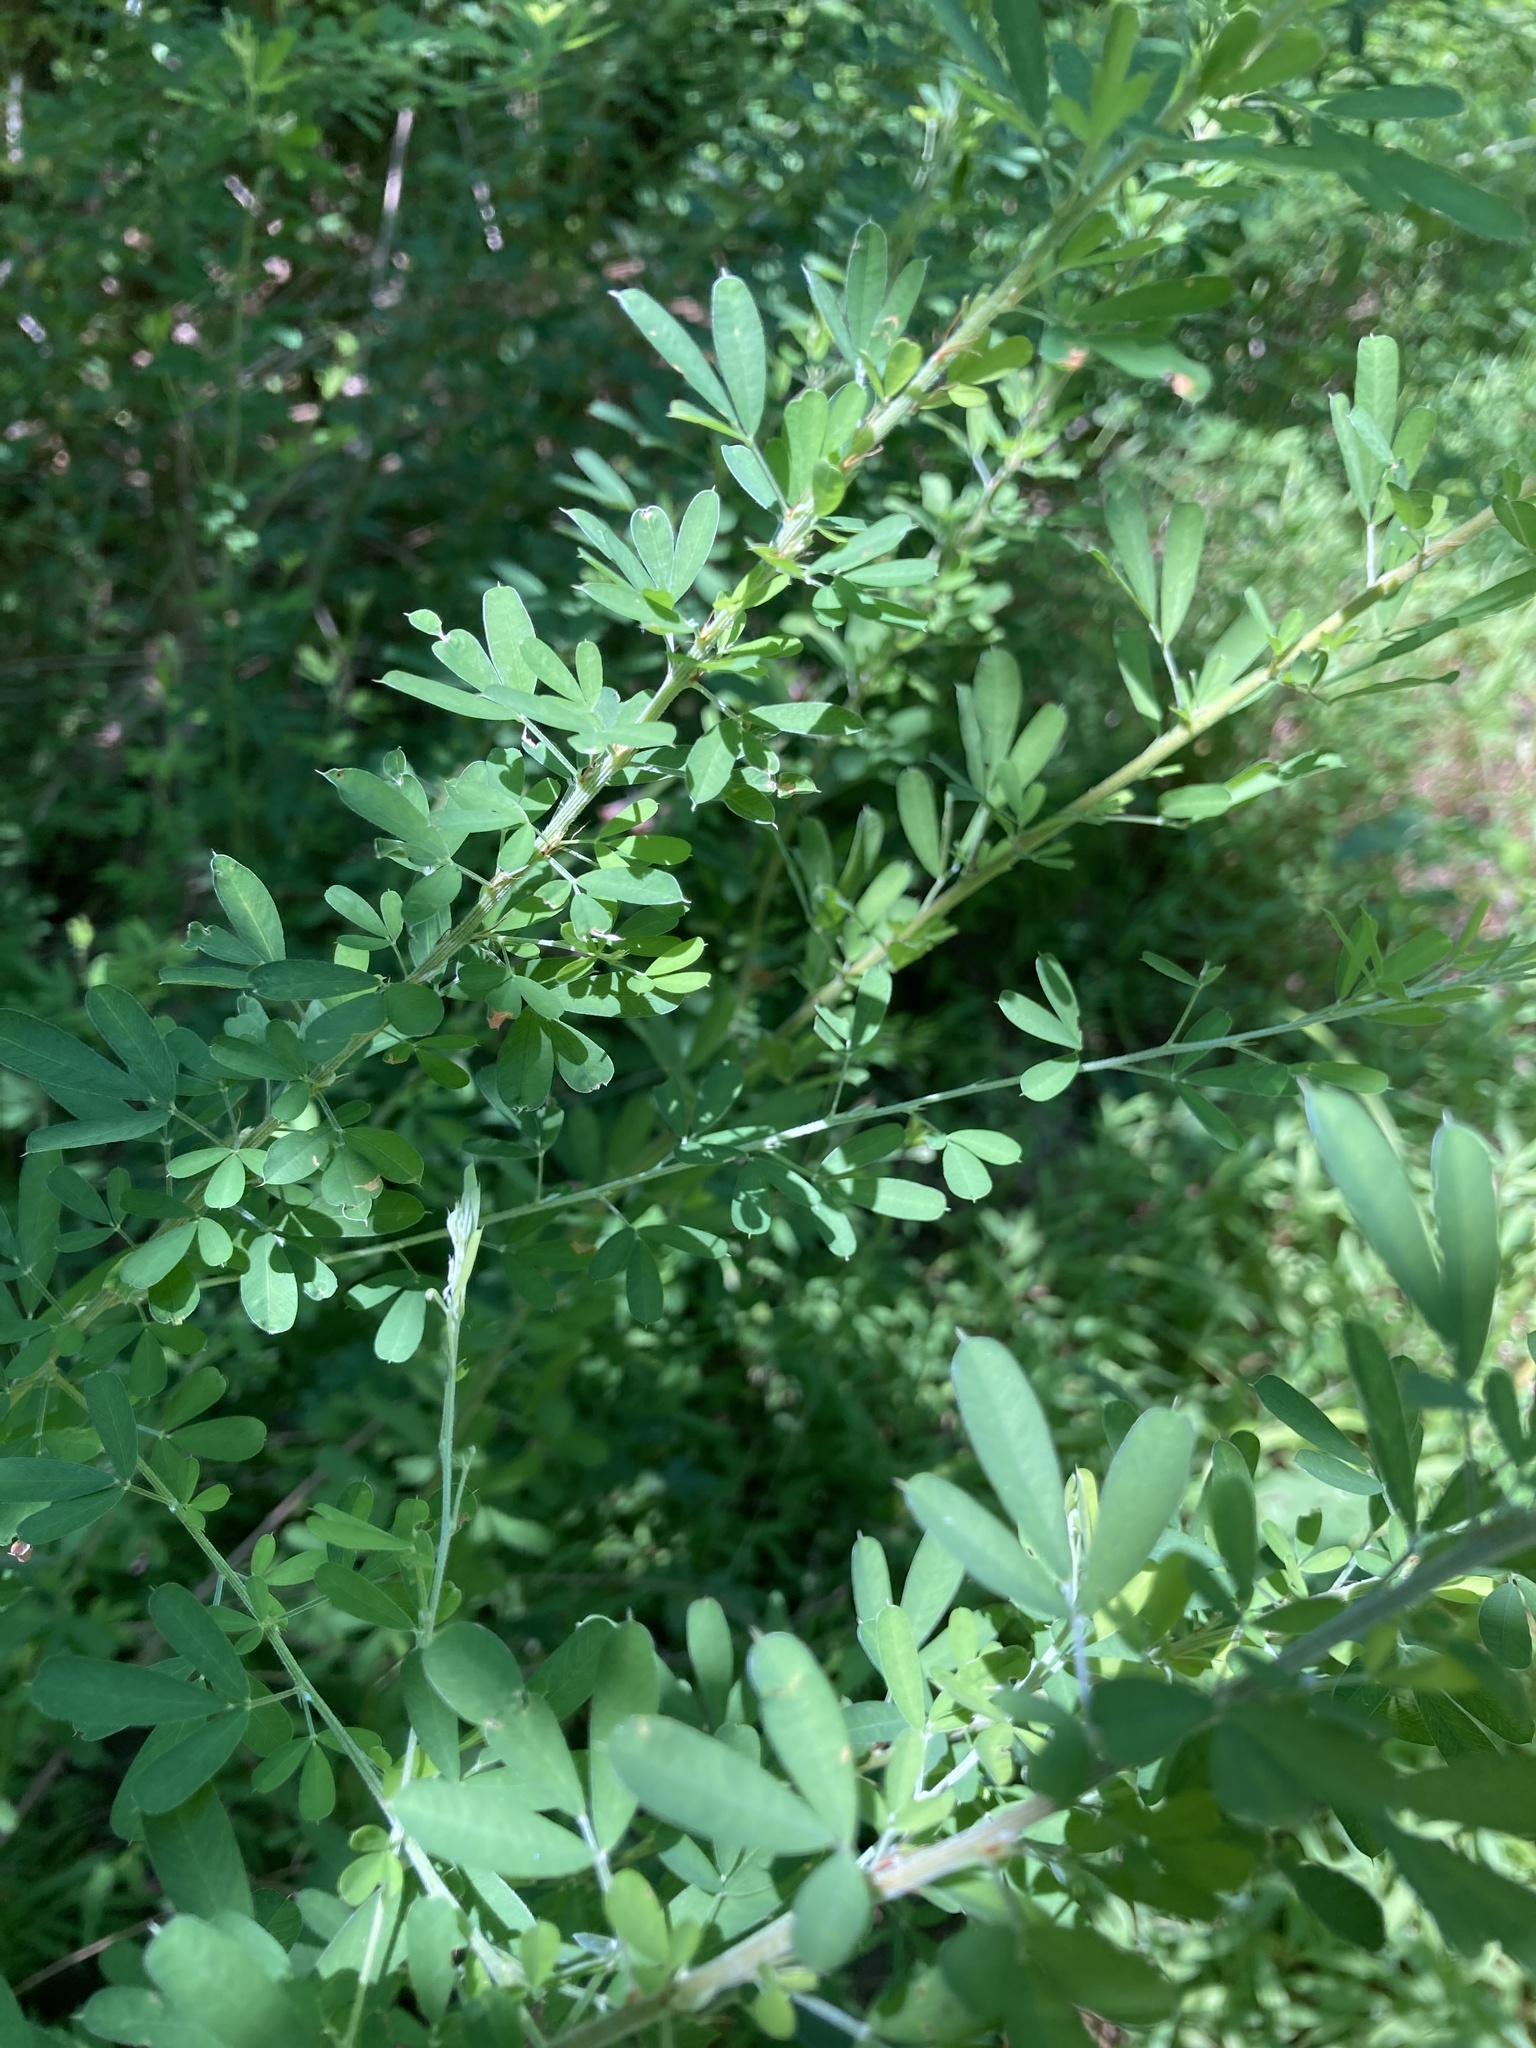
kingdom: Plantae
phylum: Tracheophyta
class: Magnoliopsida
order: Fabales
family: Fabaceae
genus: Lespedeza
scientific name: Lespedeza cuneata
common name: Chinese bush-clover
